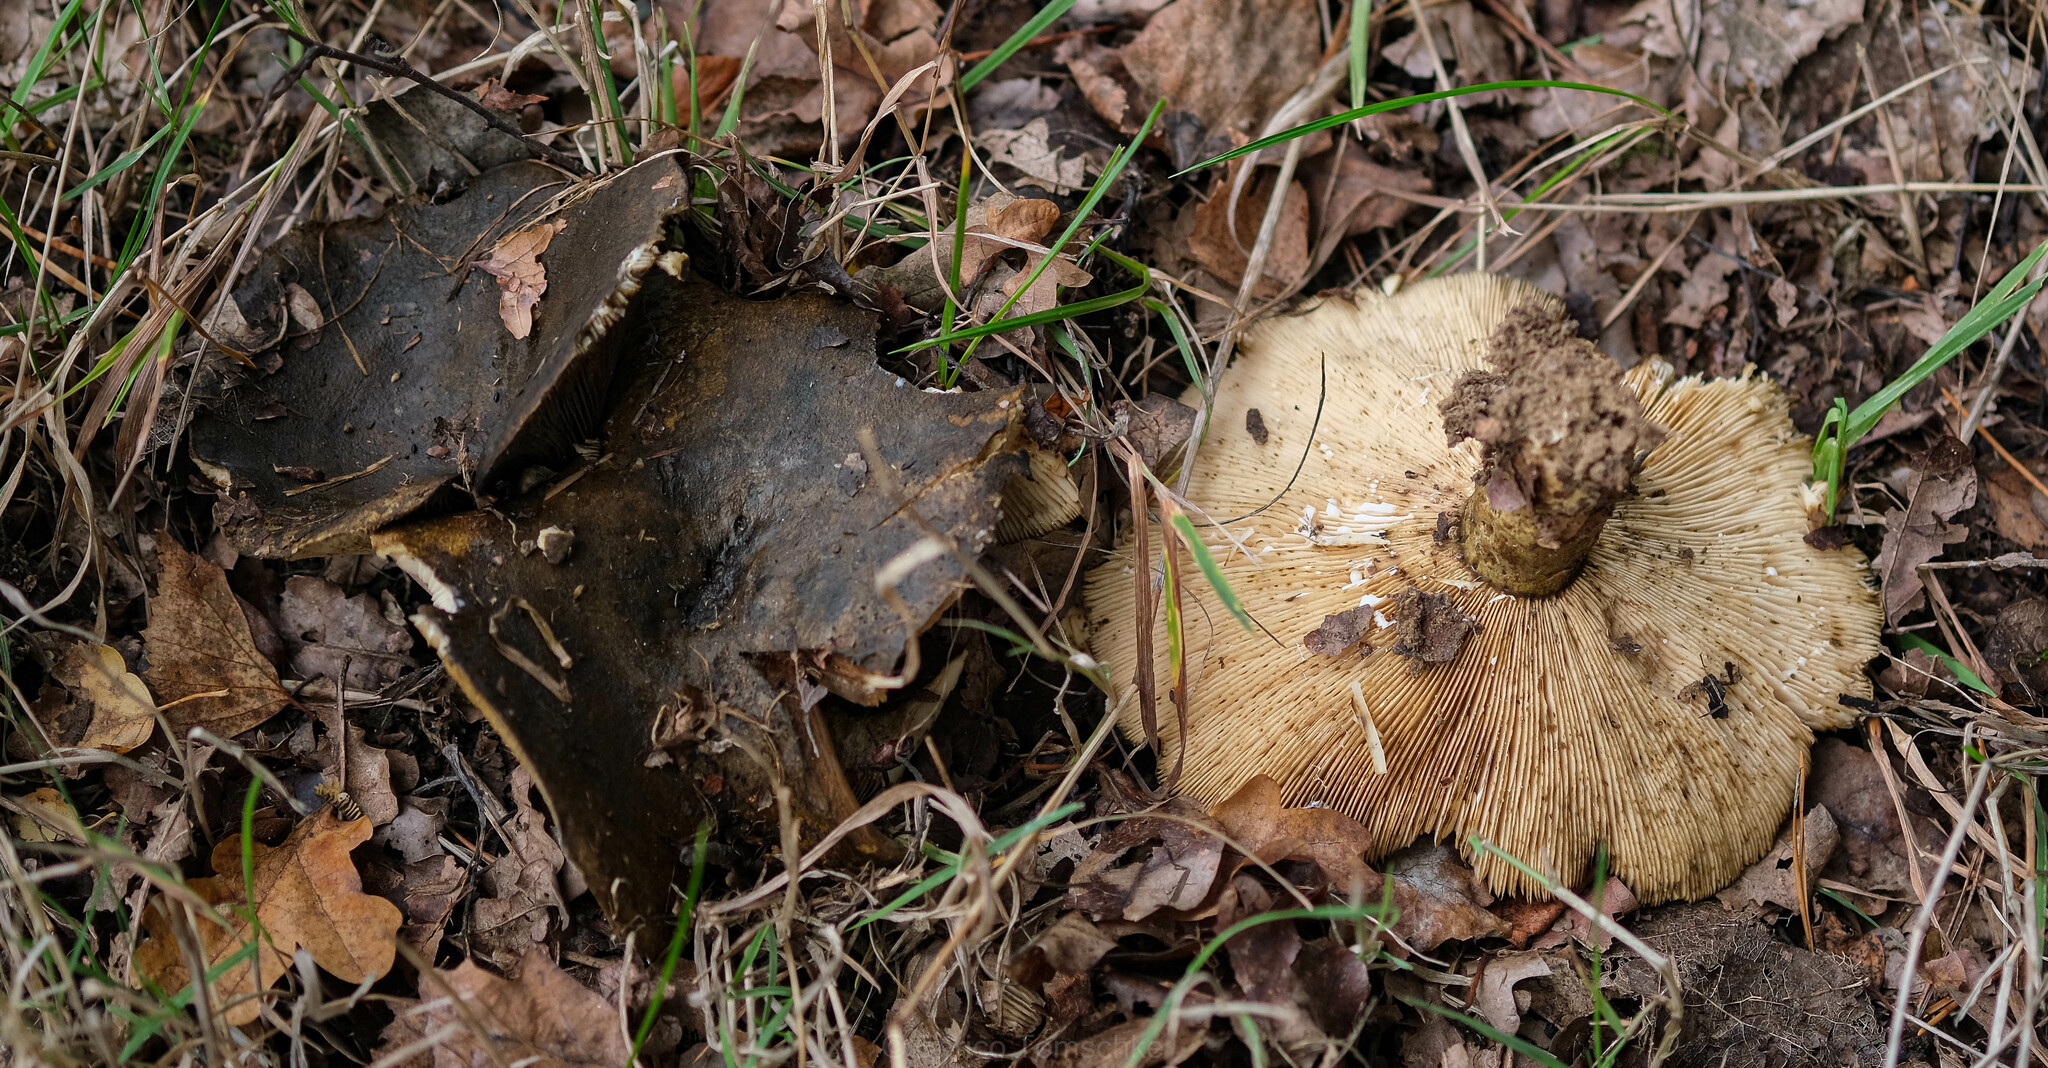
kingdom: Fungi
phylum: Basidiomycota
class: Agaricomycetes
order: Russulales
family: Russulaceae
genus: Lactarius
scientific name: Lactarius turpis
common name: Ugly milk-cap
